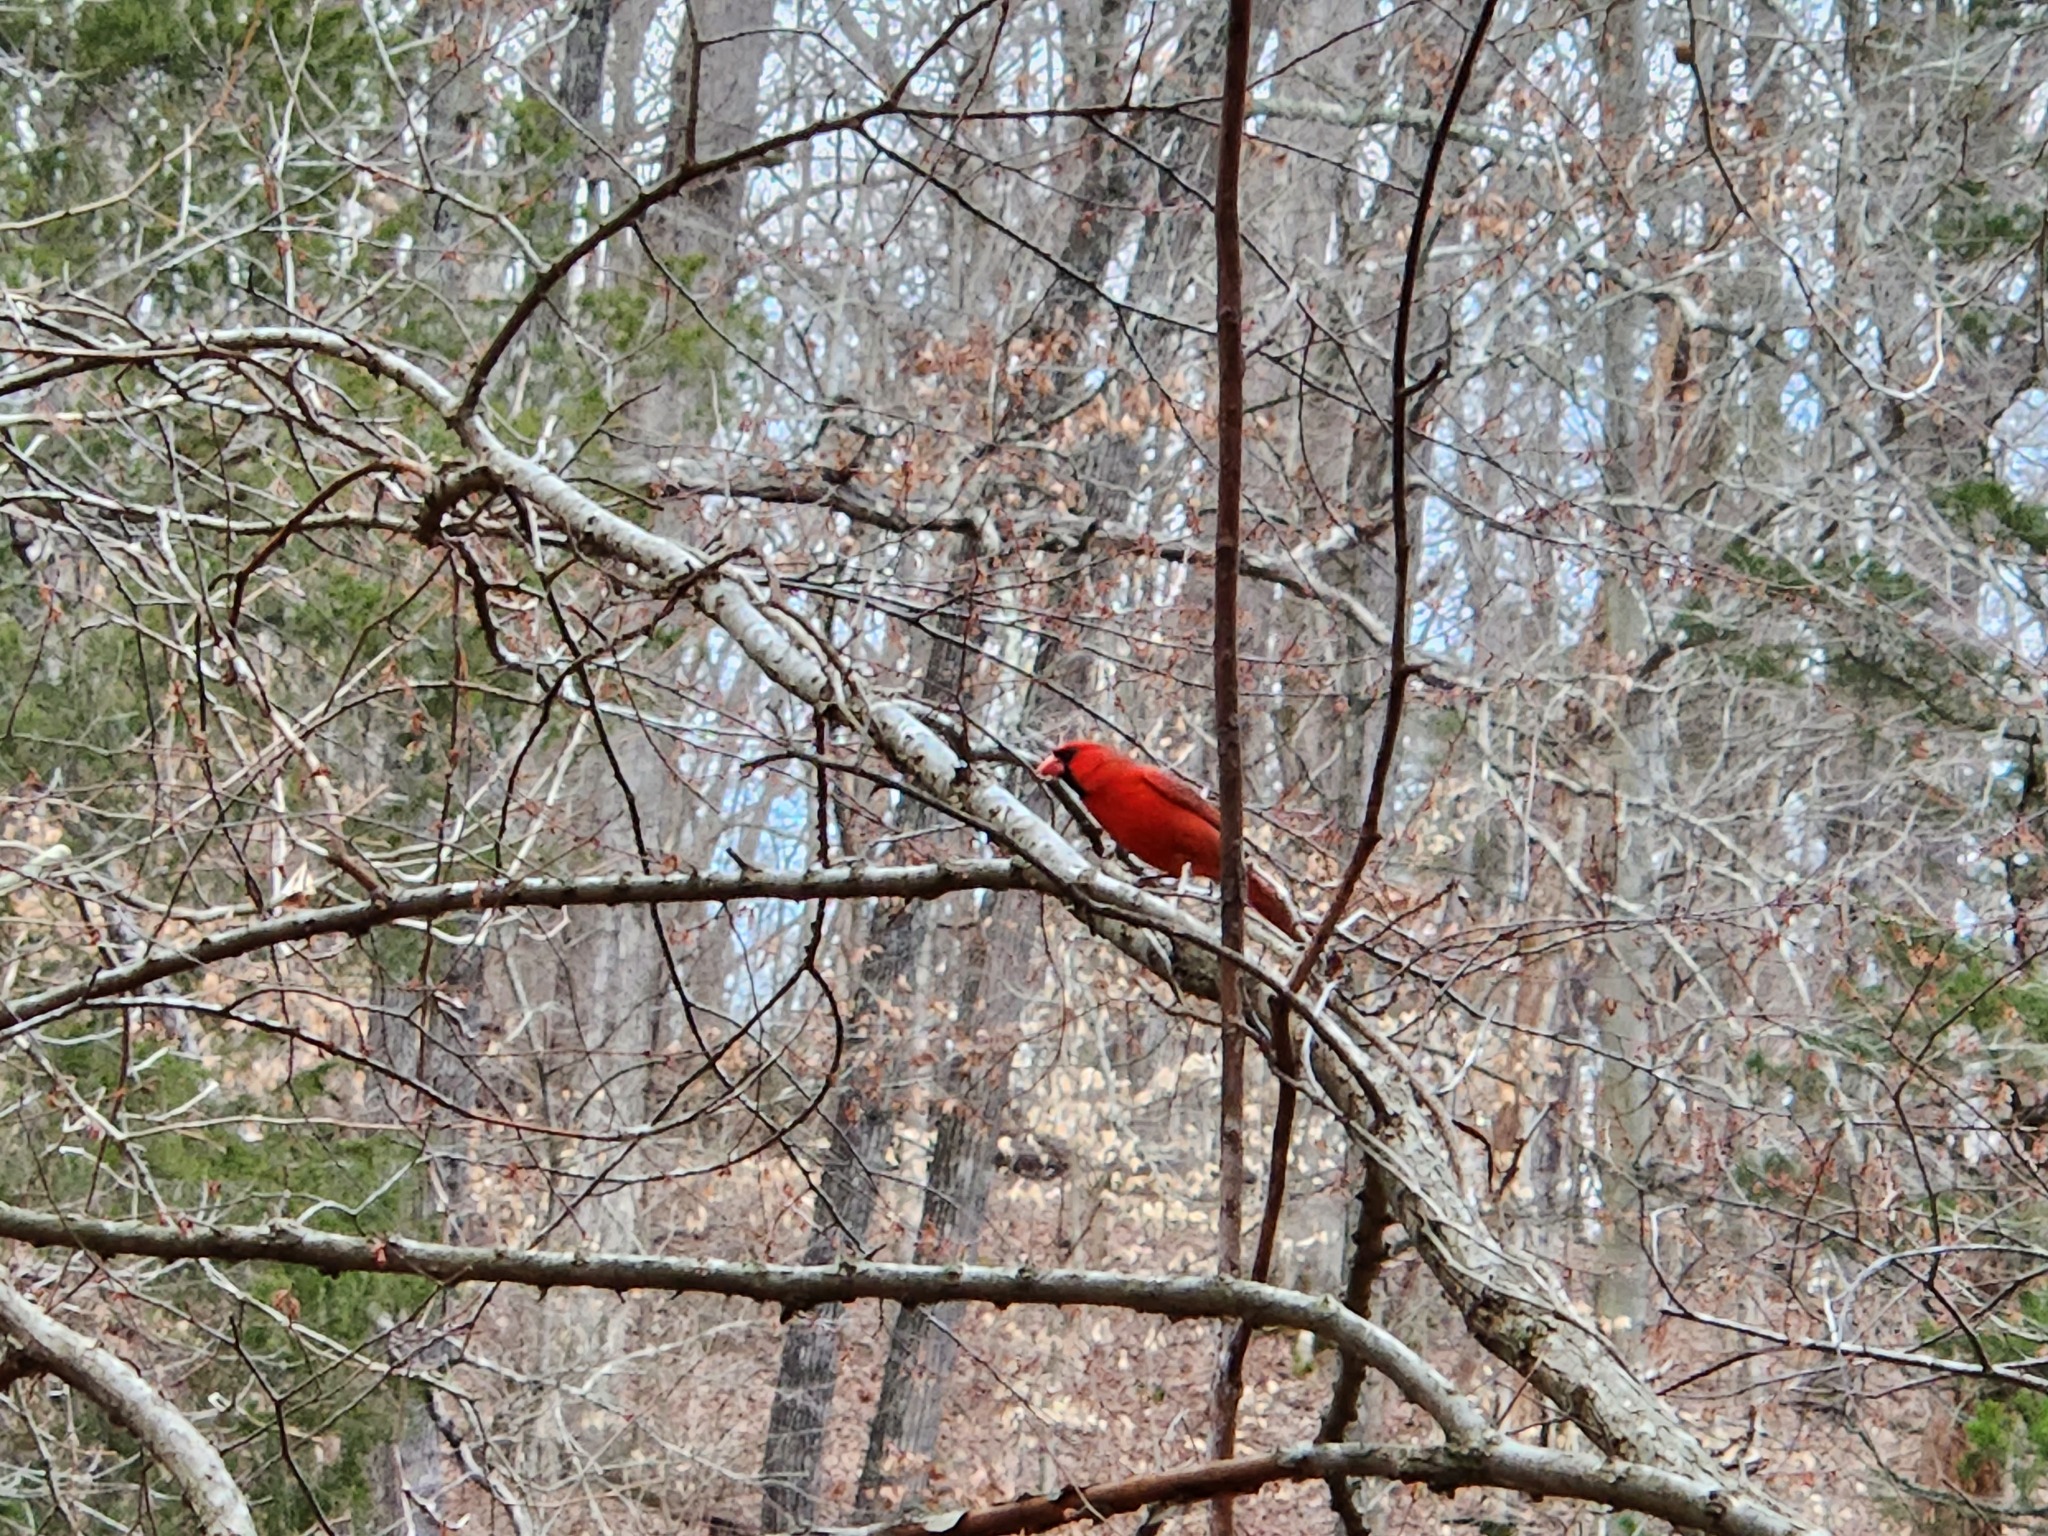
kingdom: Animalia
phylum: Chordata
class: Aves
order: Passeriformes
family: Cardinalidae
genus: Cardinalis
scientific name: Cardinalis cardinalis
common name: Northern cardinal
